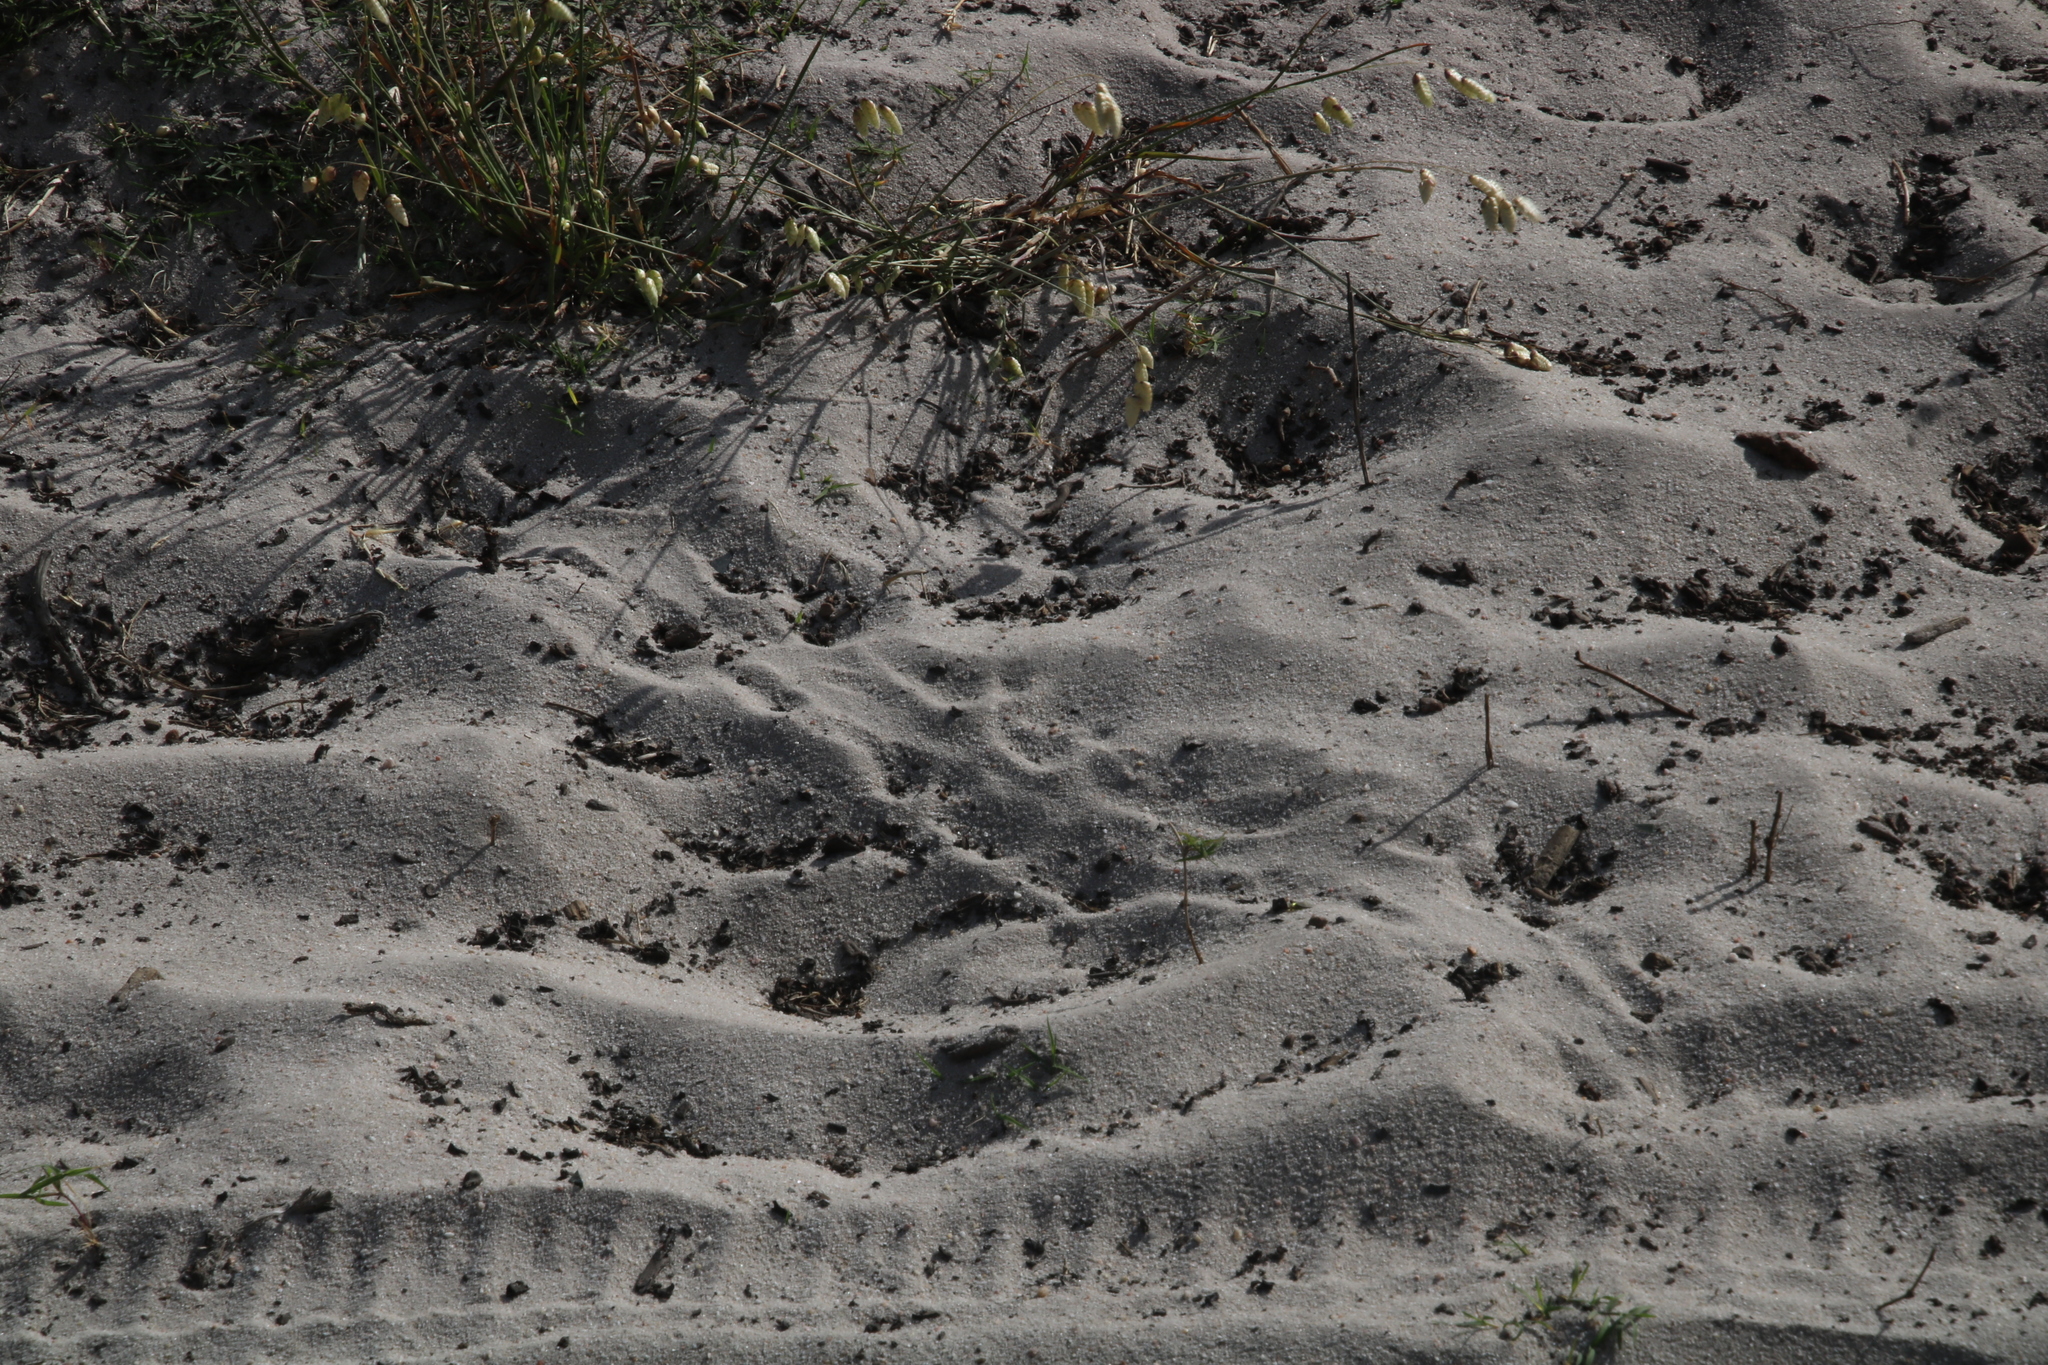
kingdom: Animalia
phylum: Chordata
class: Testudines
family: Testudinidae
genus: Homopus
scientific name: Homopus areolatus
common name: Parrot-beaked tortoise
